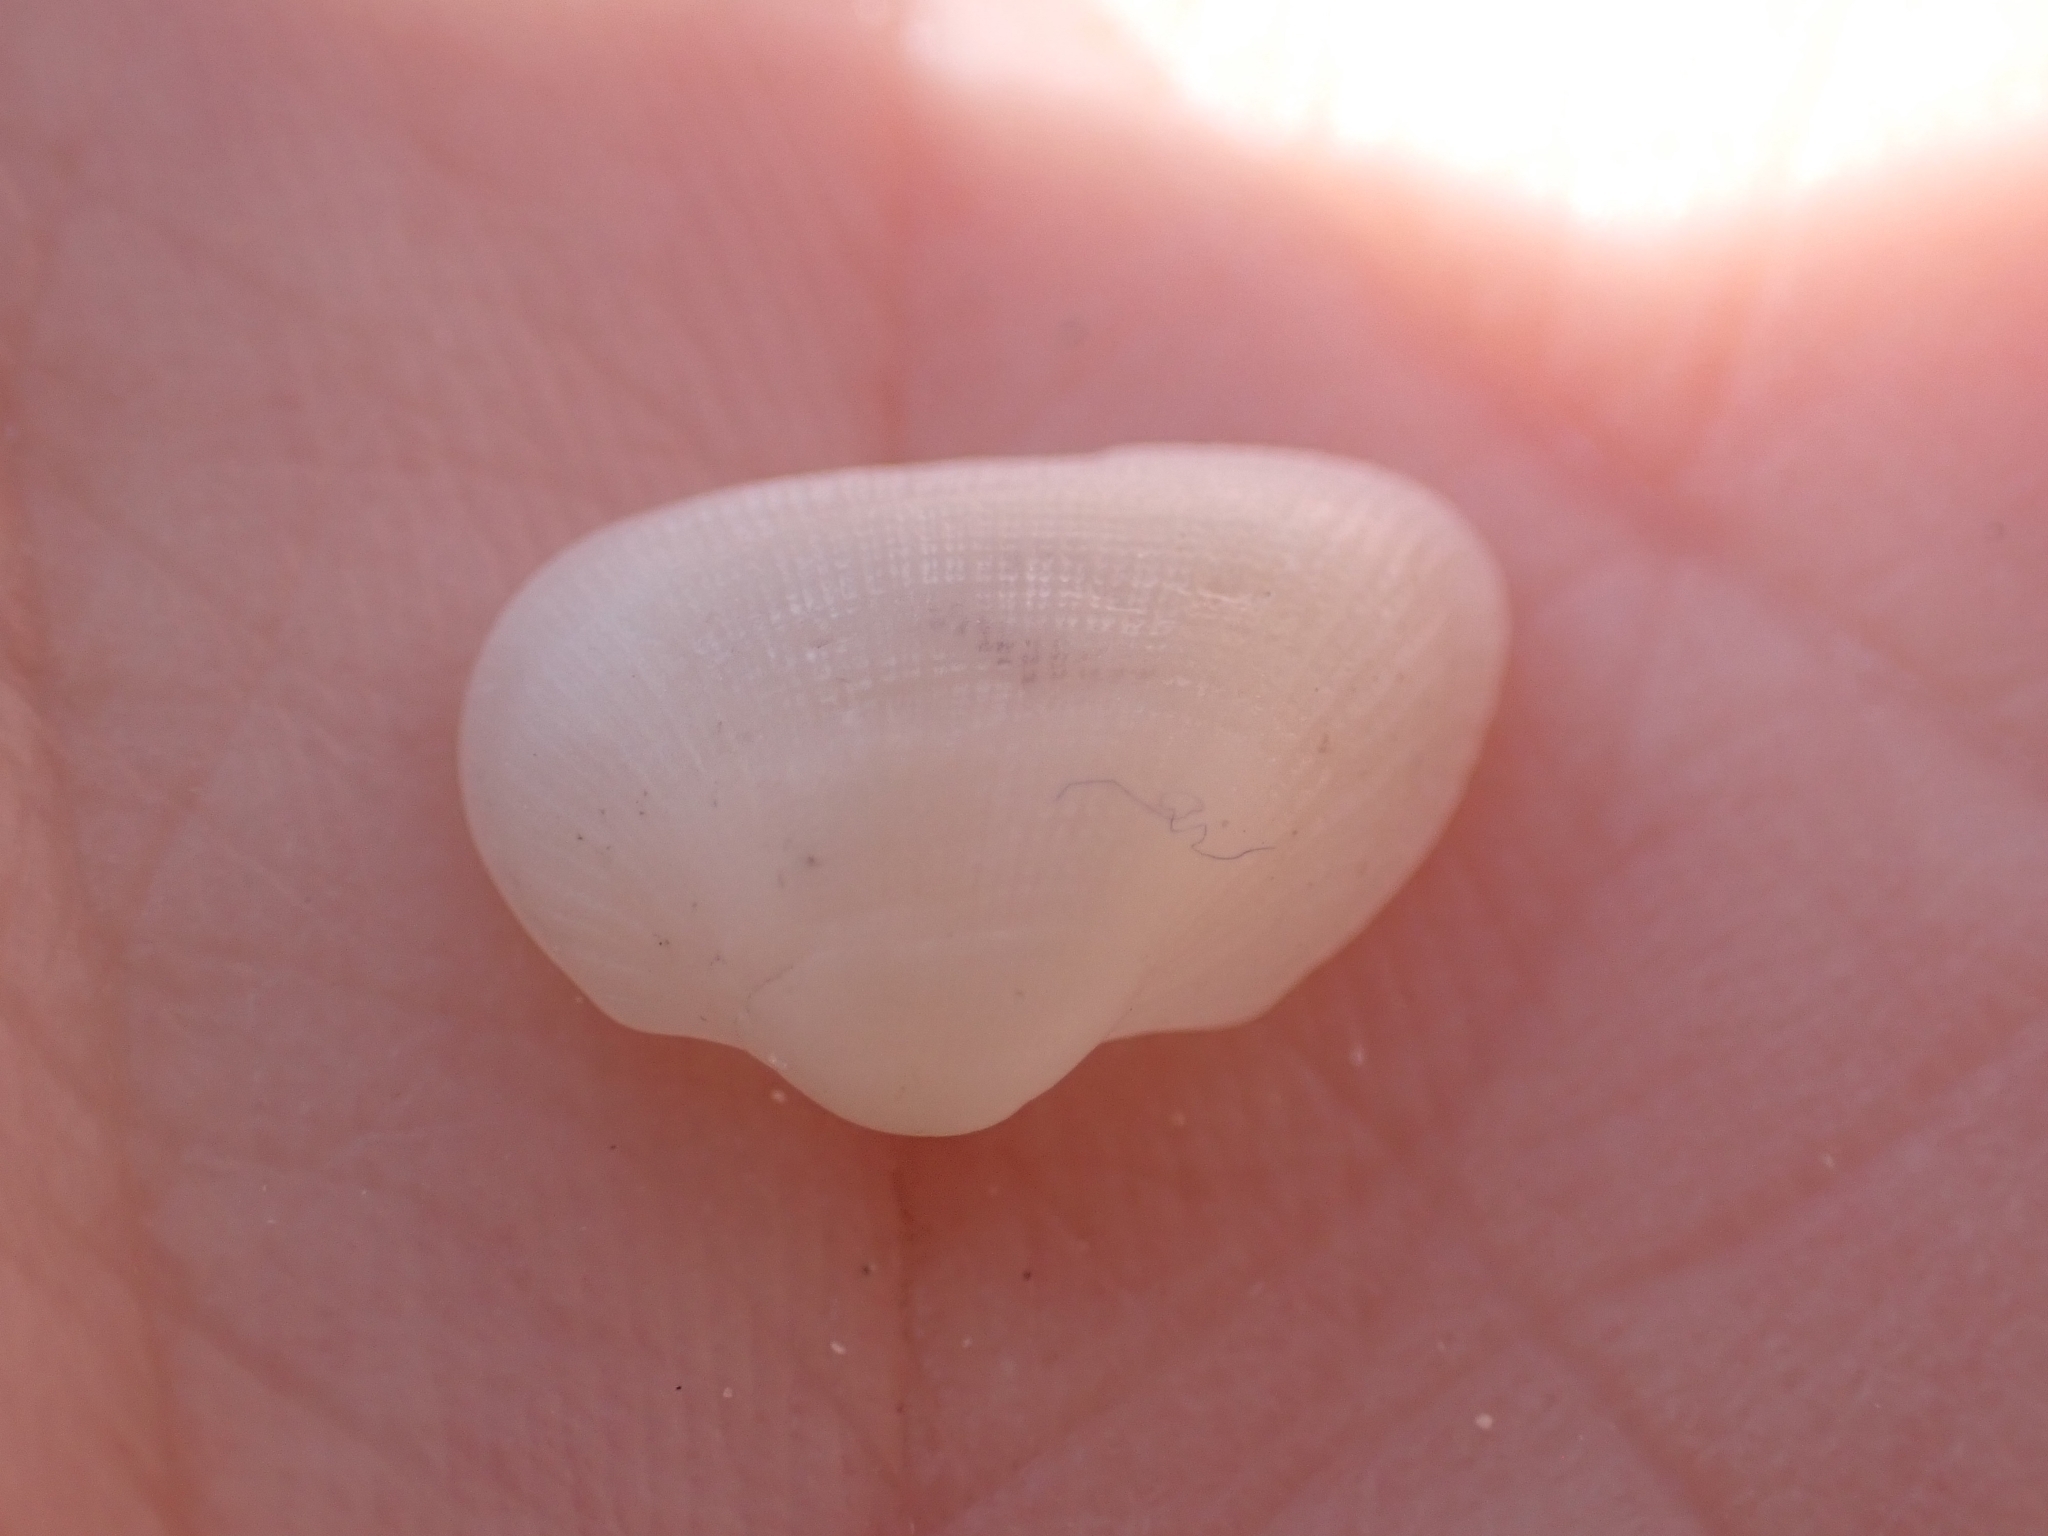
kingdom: Animalia
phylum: Mollusca
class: Bivalvia
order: Arcida
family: Noetiidae
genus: Striarca
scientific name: Striarca lactea
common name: Milky-white ark
